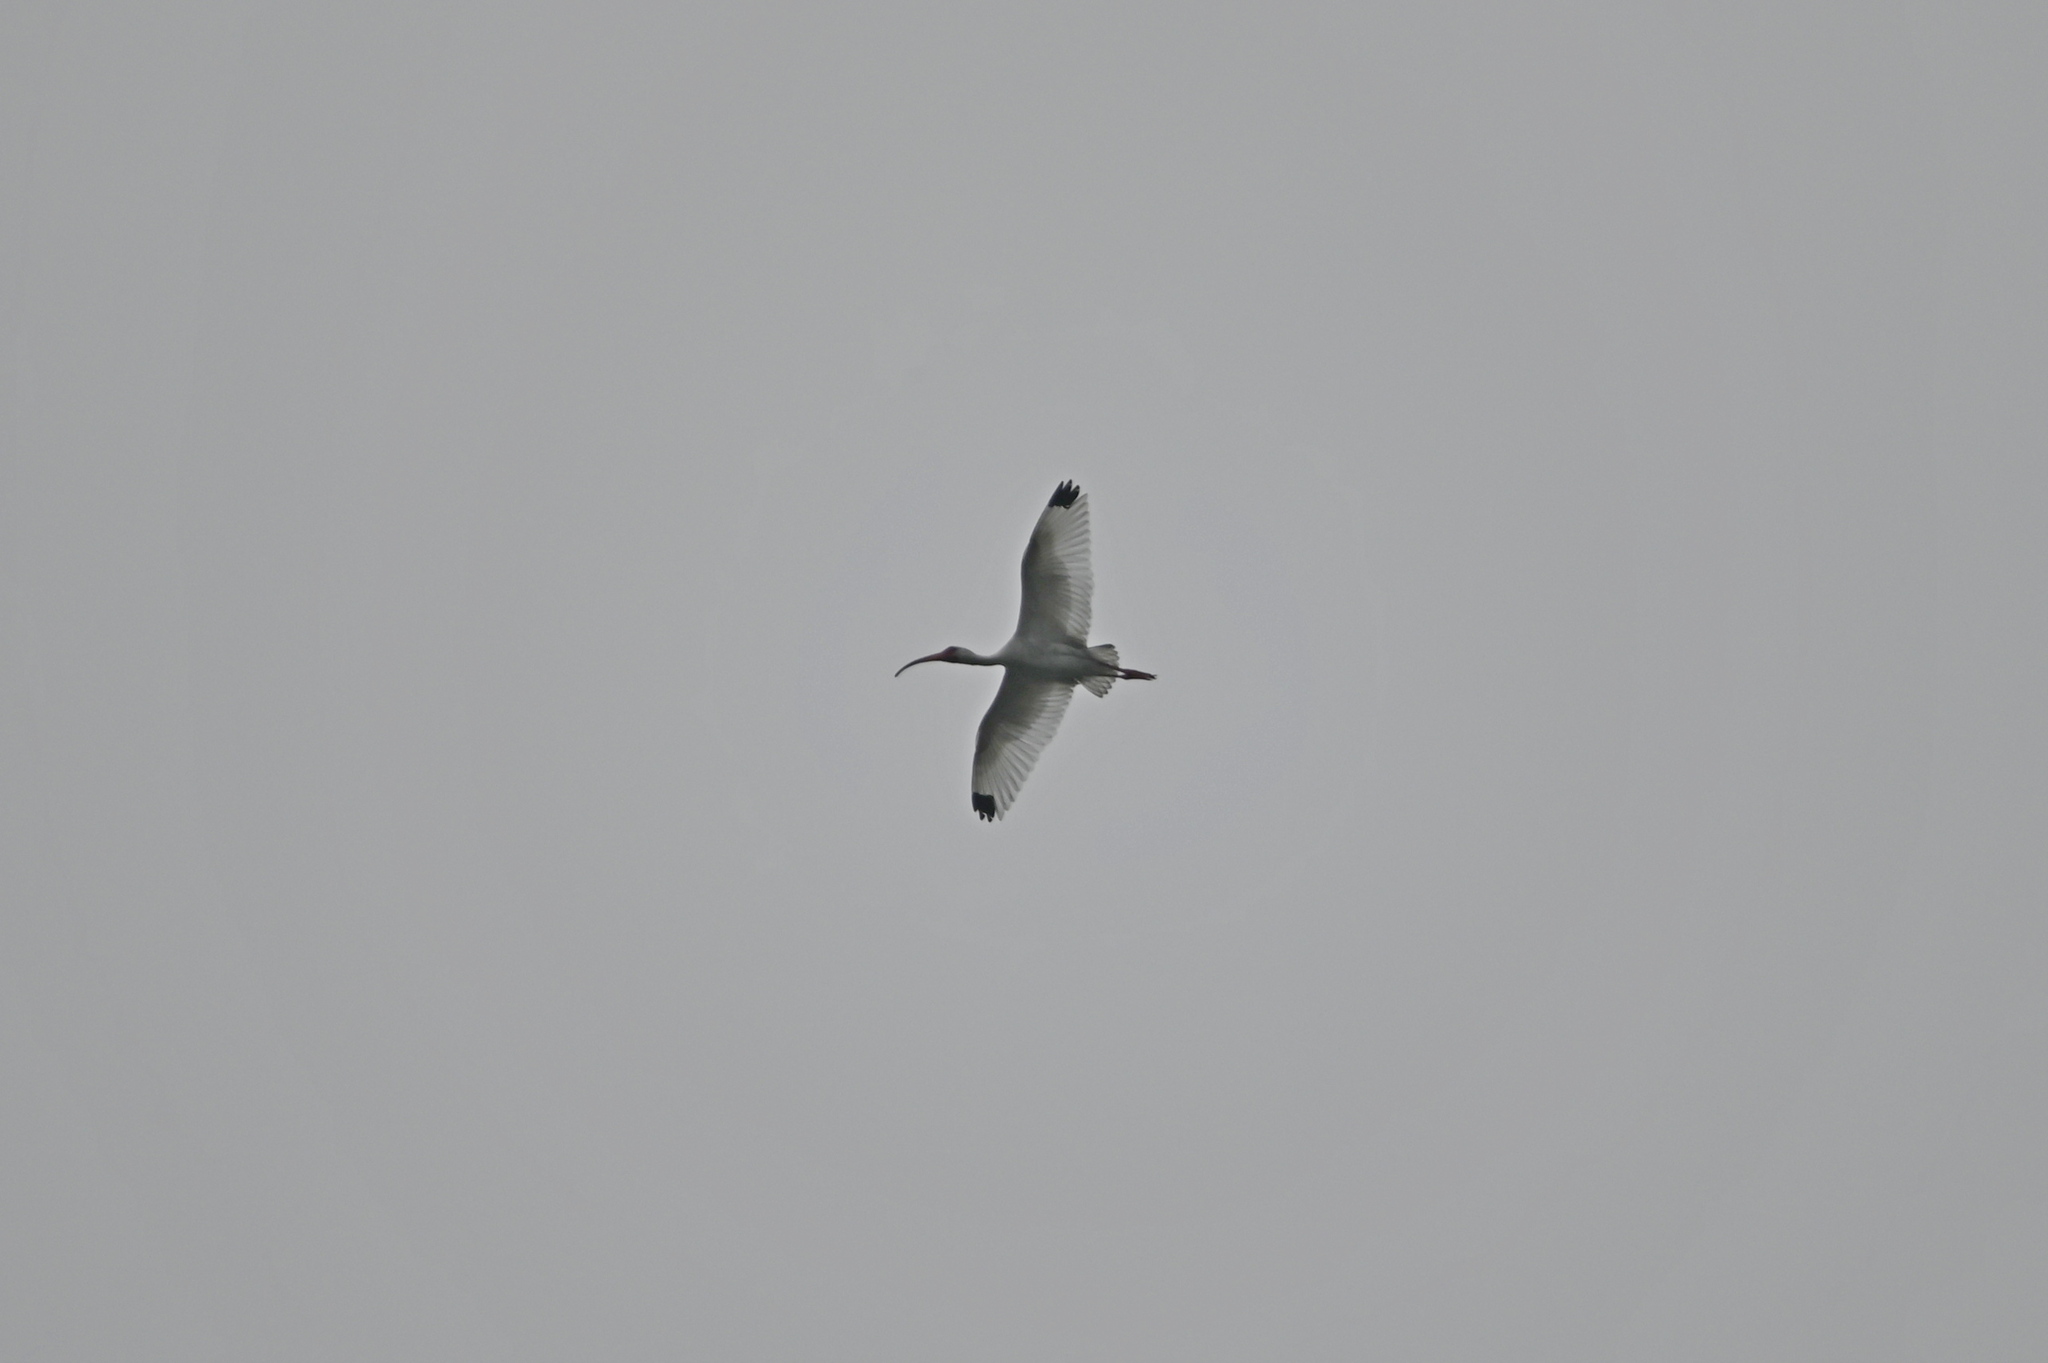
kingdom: Animalia
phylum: Chordata
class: Aves
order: Pelecaniformes
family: Threskiornithidae
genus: Eudocimus
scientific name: Eudocimus albus
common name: White ibis
